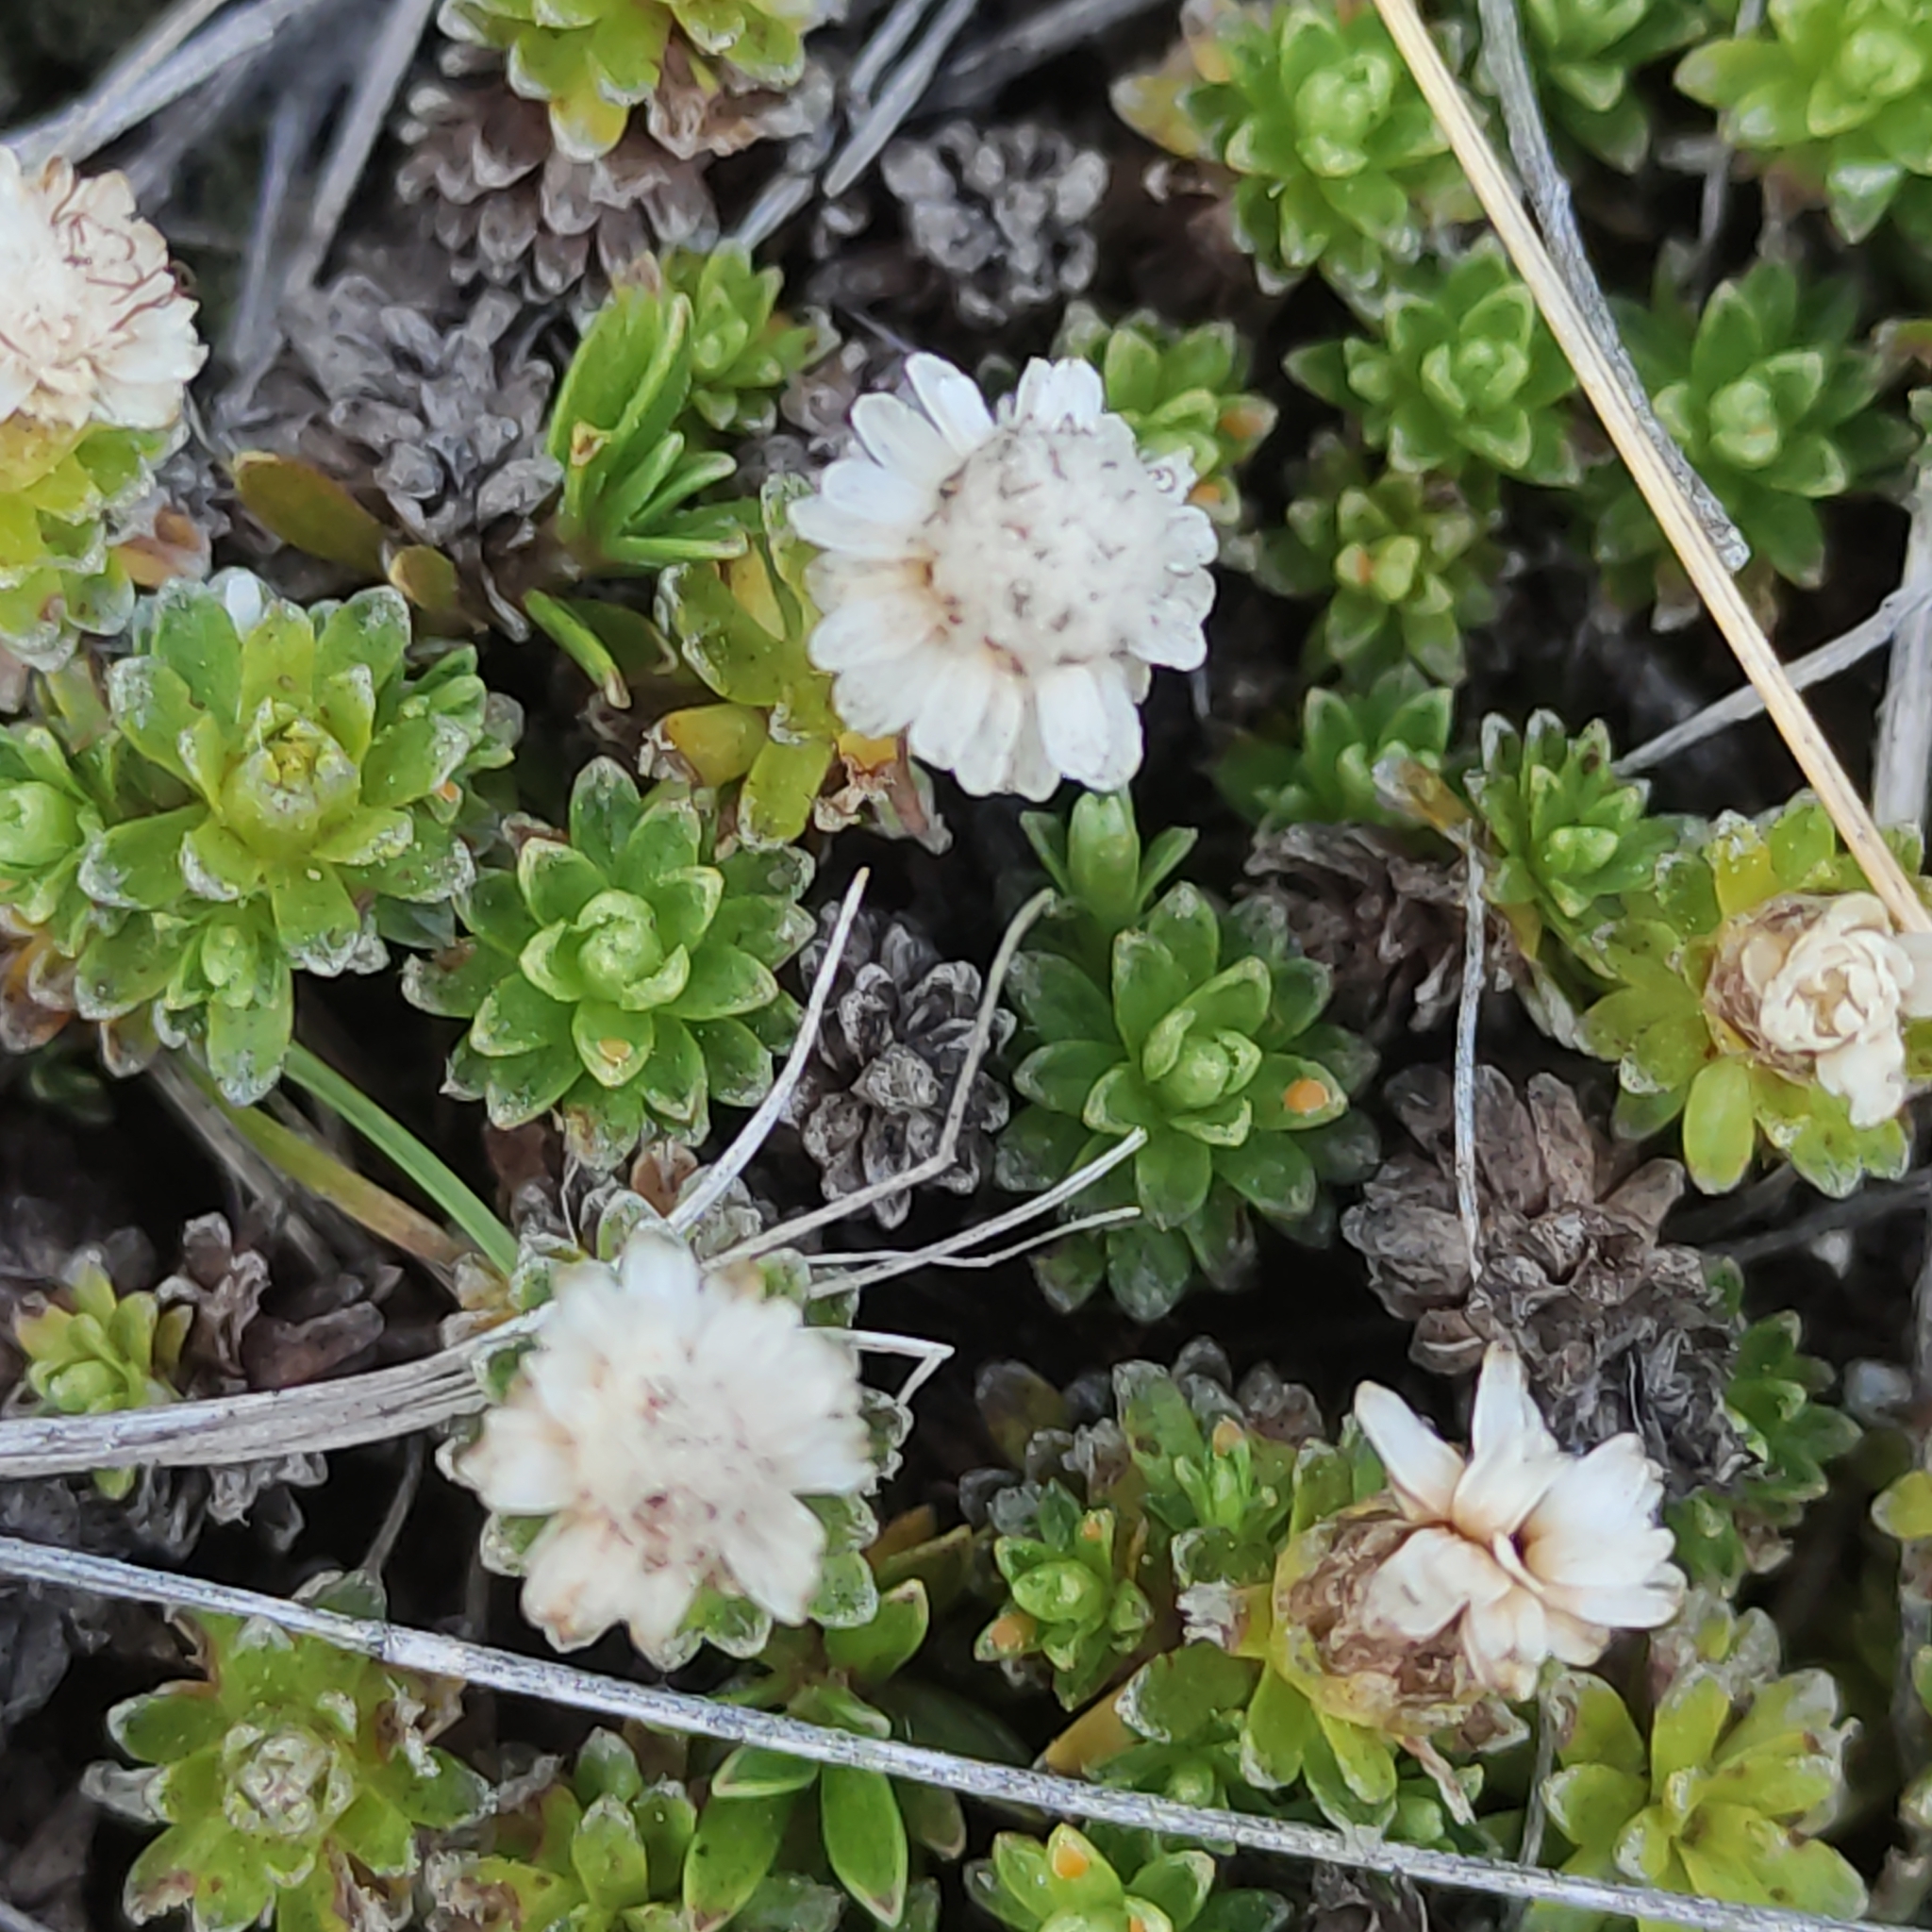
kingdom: Plantae
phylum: Tracheophyta
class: Magnoliopsida
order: Asterales
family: Asteraceae
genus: Raoulia
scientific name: Raoulia subsericea
